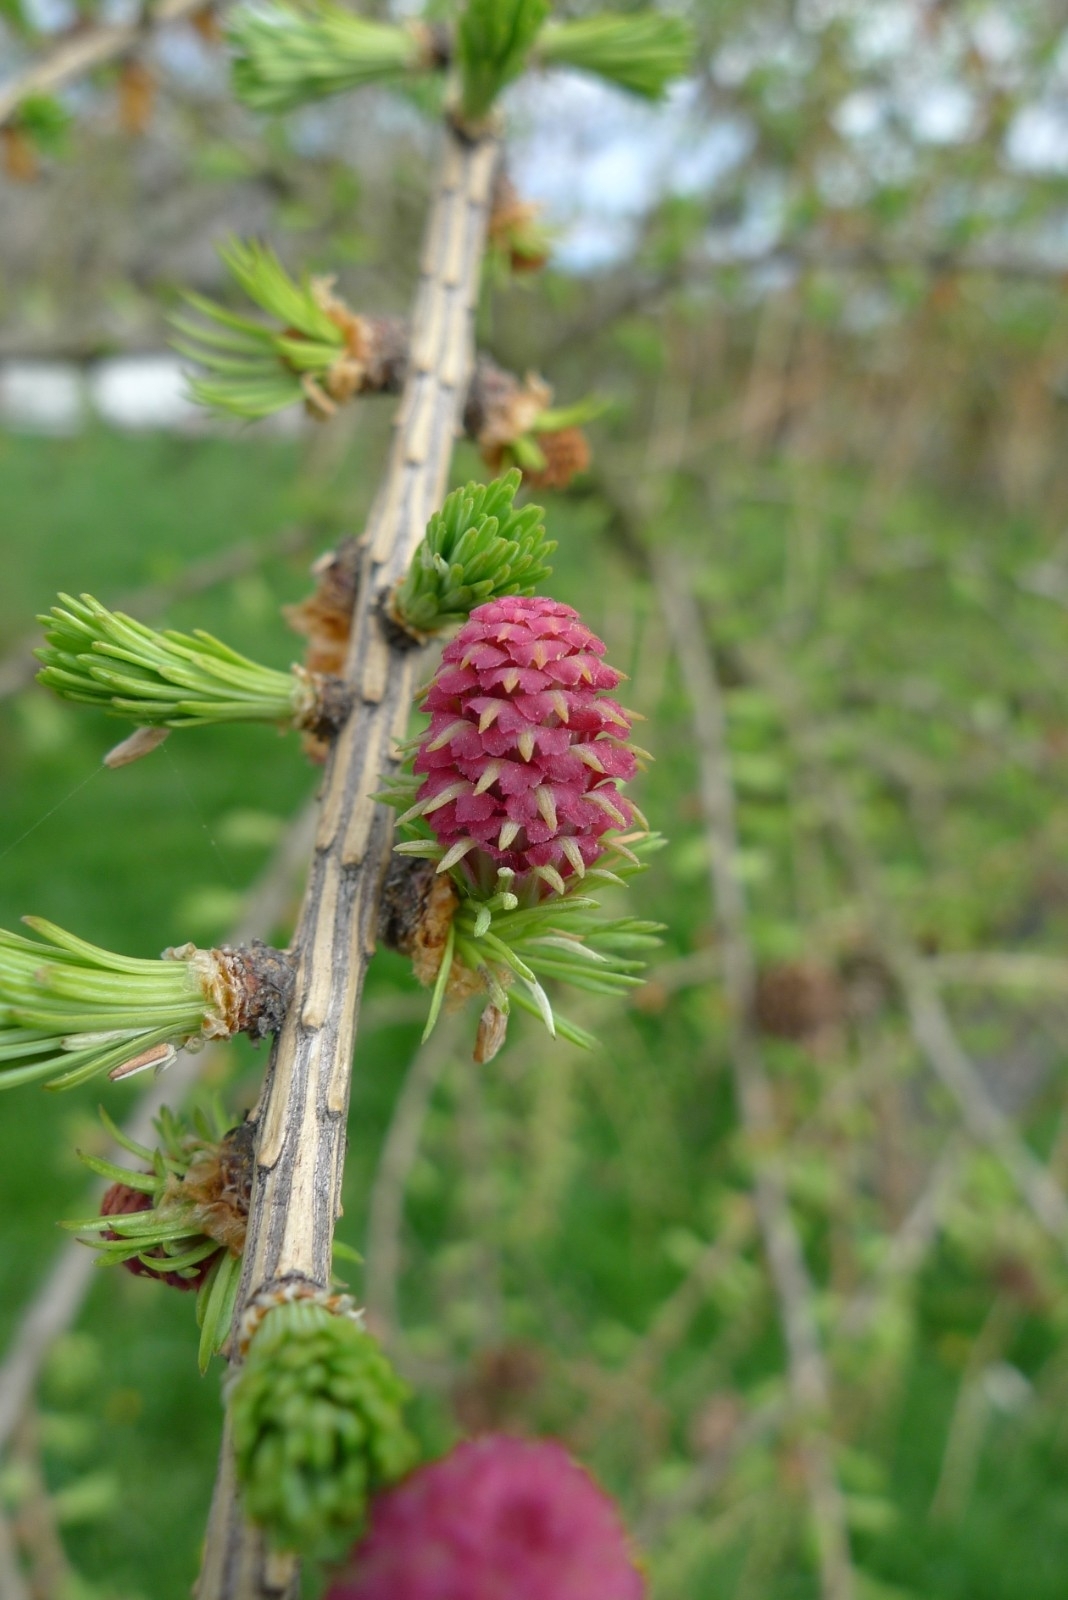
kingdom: Plantae
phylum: Tracheophyta
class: Pinopsida
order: Pinales
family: Pinaceae
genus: Larix
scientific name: Larix decidua
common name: European larch
